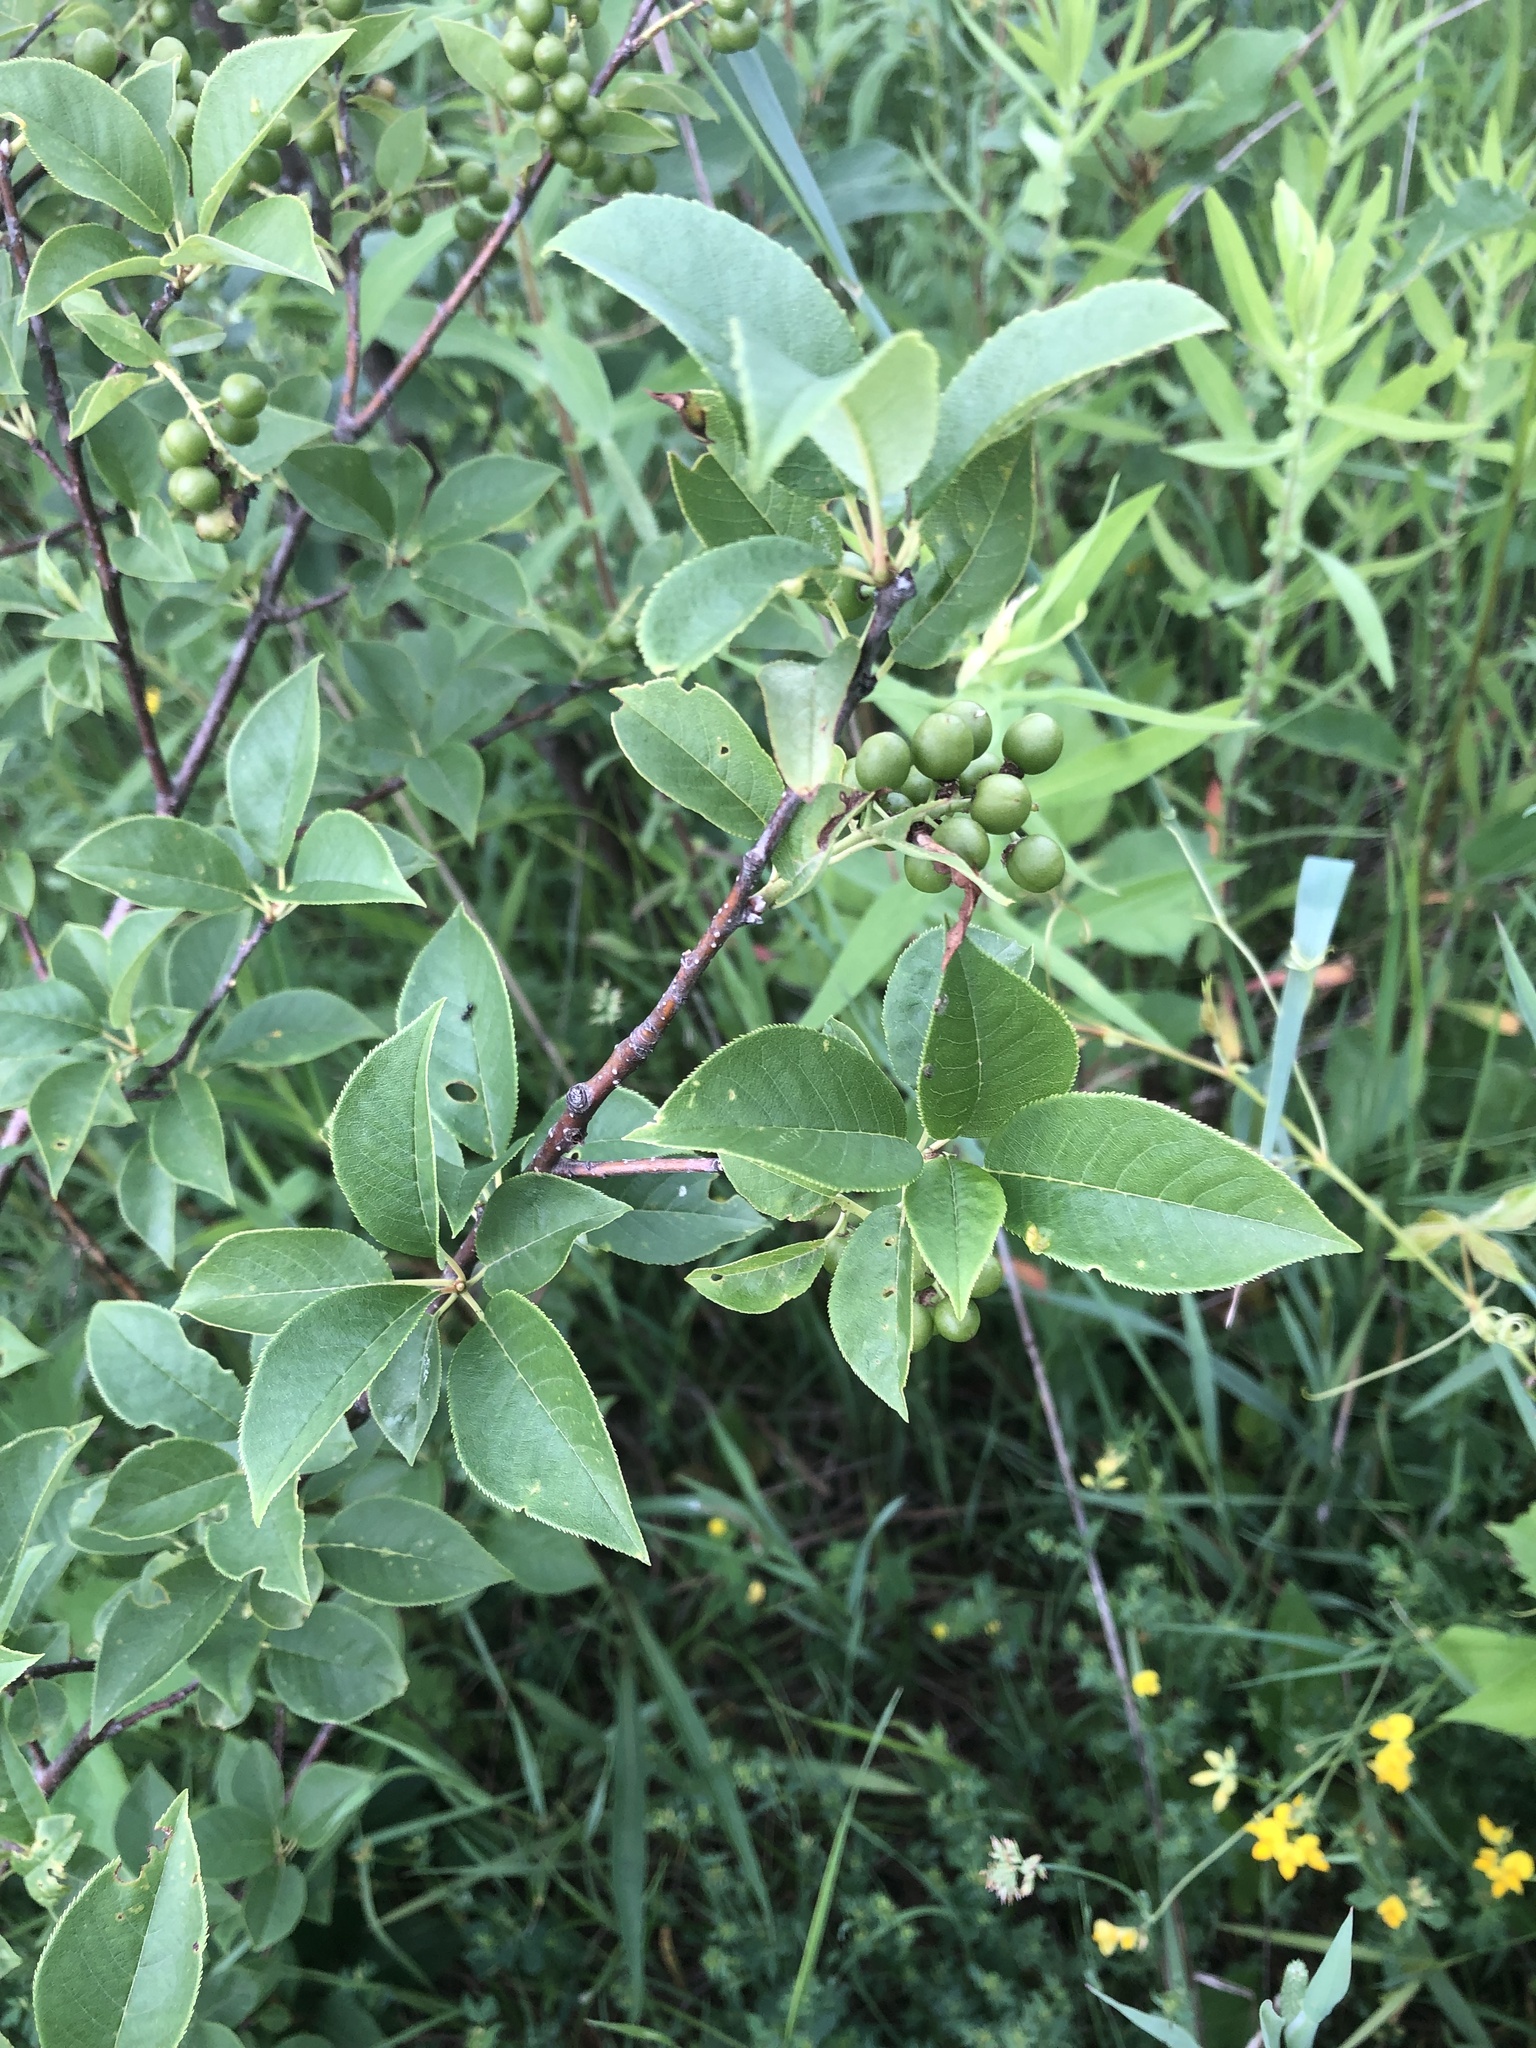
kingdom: Plantae
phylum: Tracheophyta
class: Magnoliopsida
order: Rosales
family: Rosaceae
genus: Prunus
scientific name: Prunus virginiana
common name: Chokecherry
